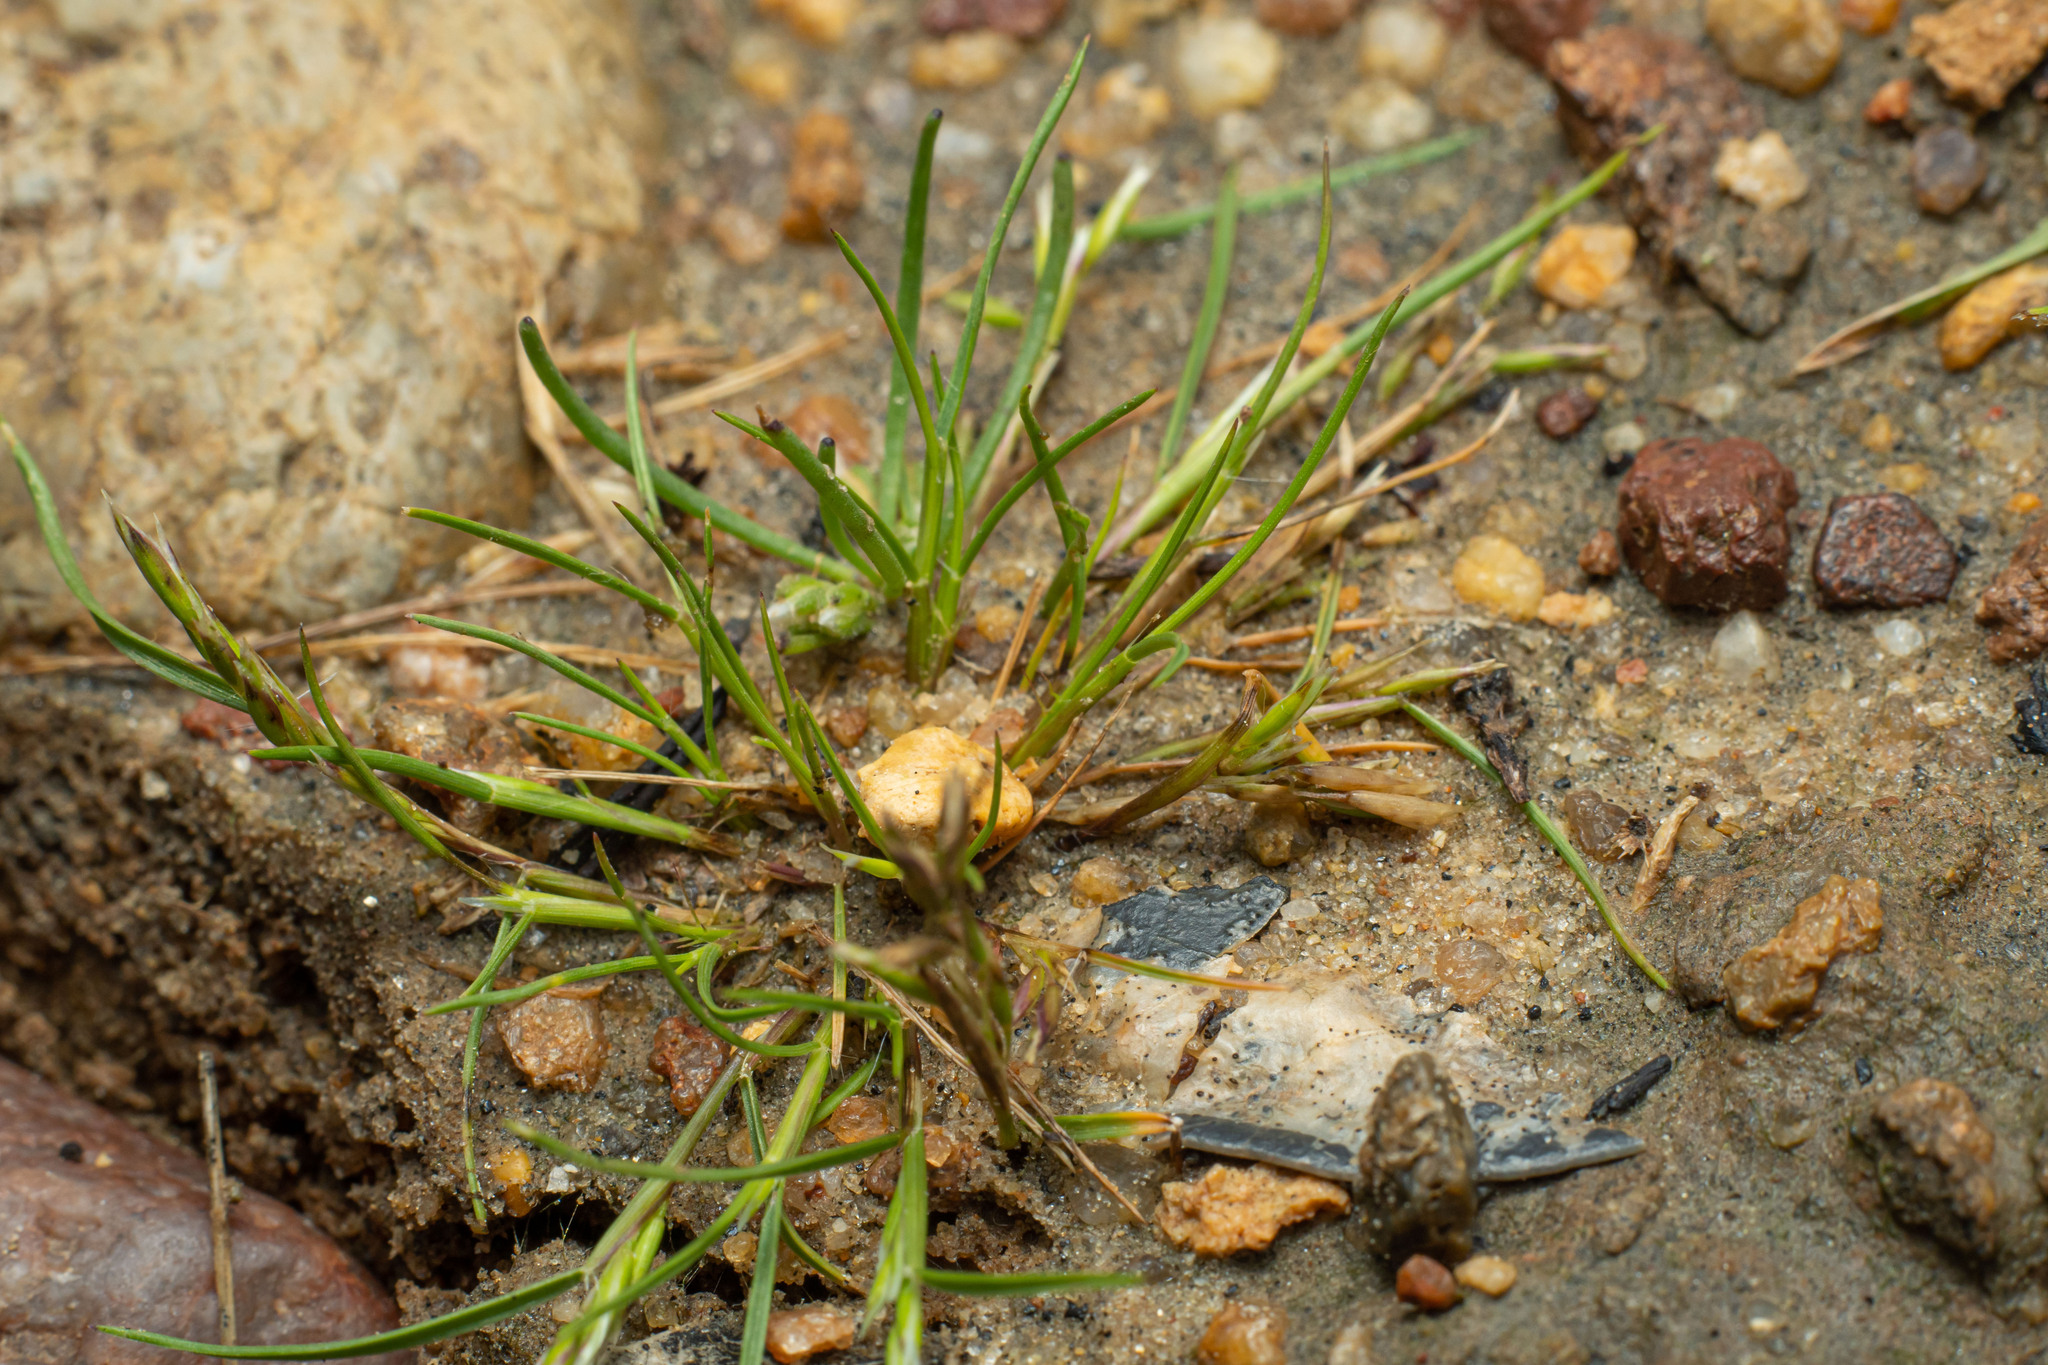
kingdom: Plantae
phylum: Tracheophyta
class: Liliopsida
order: Poales
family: Poaceae
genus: Schismus
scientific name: Schismus barbatus
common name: Kelch-grass
